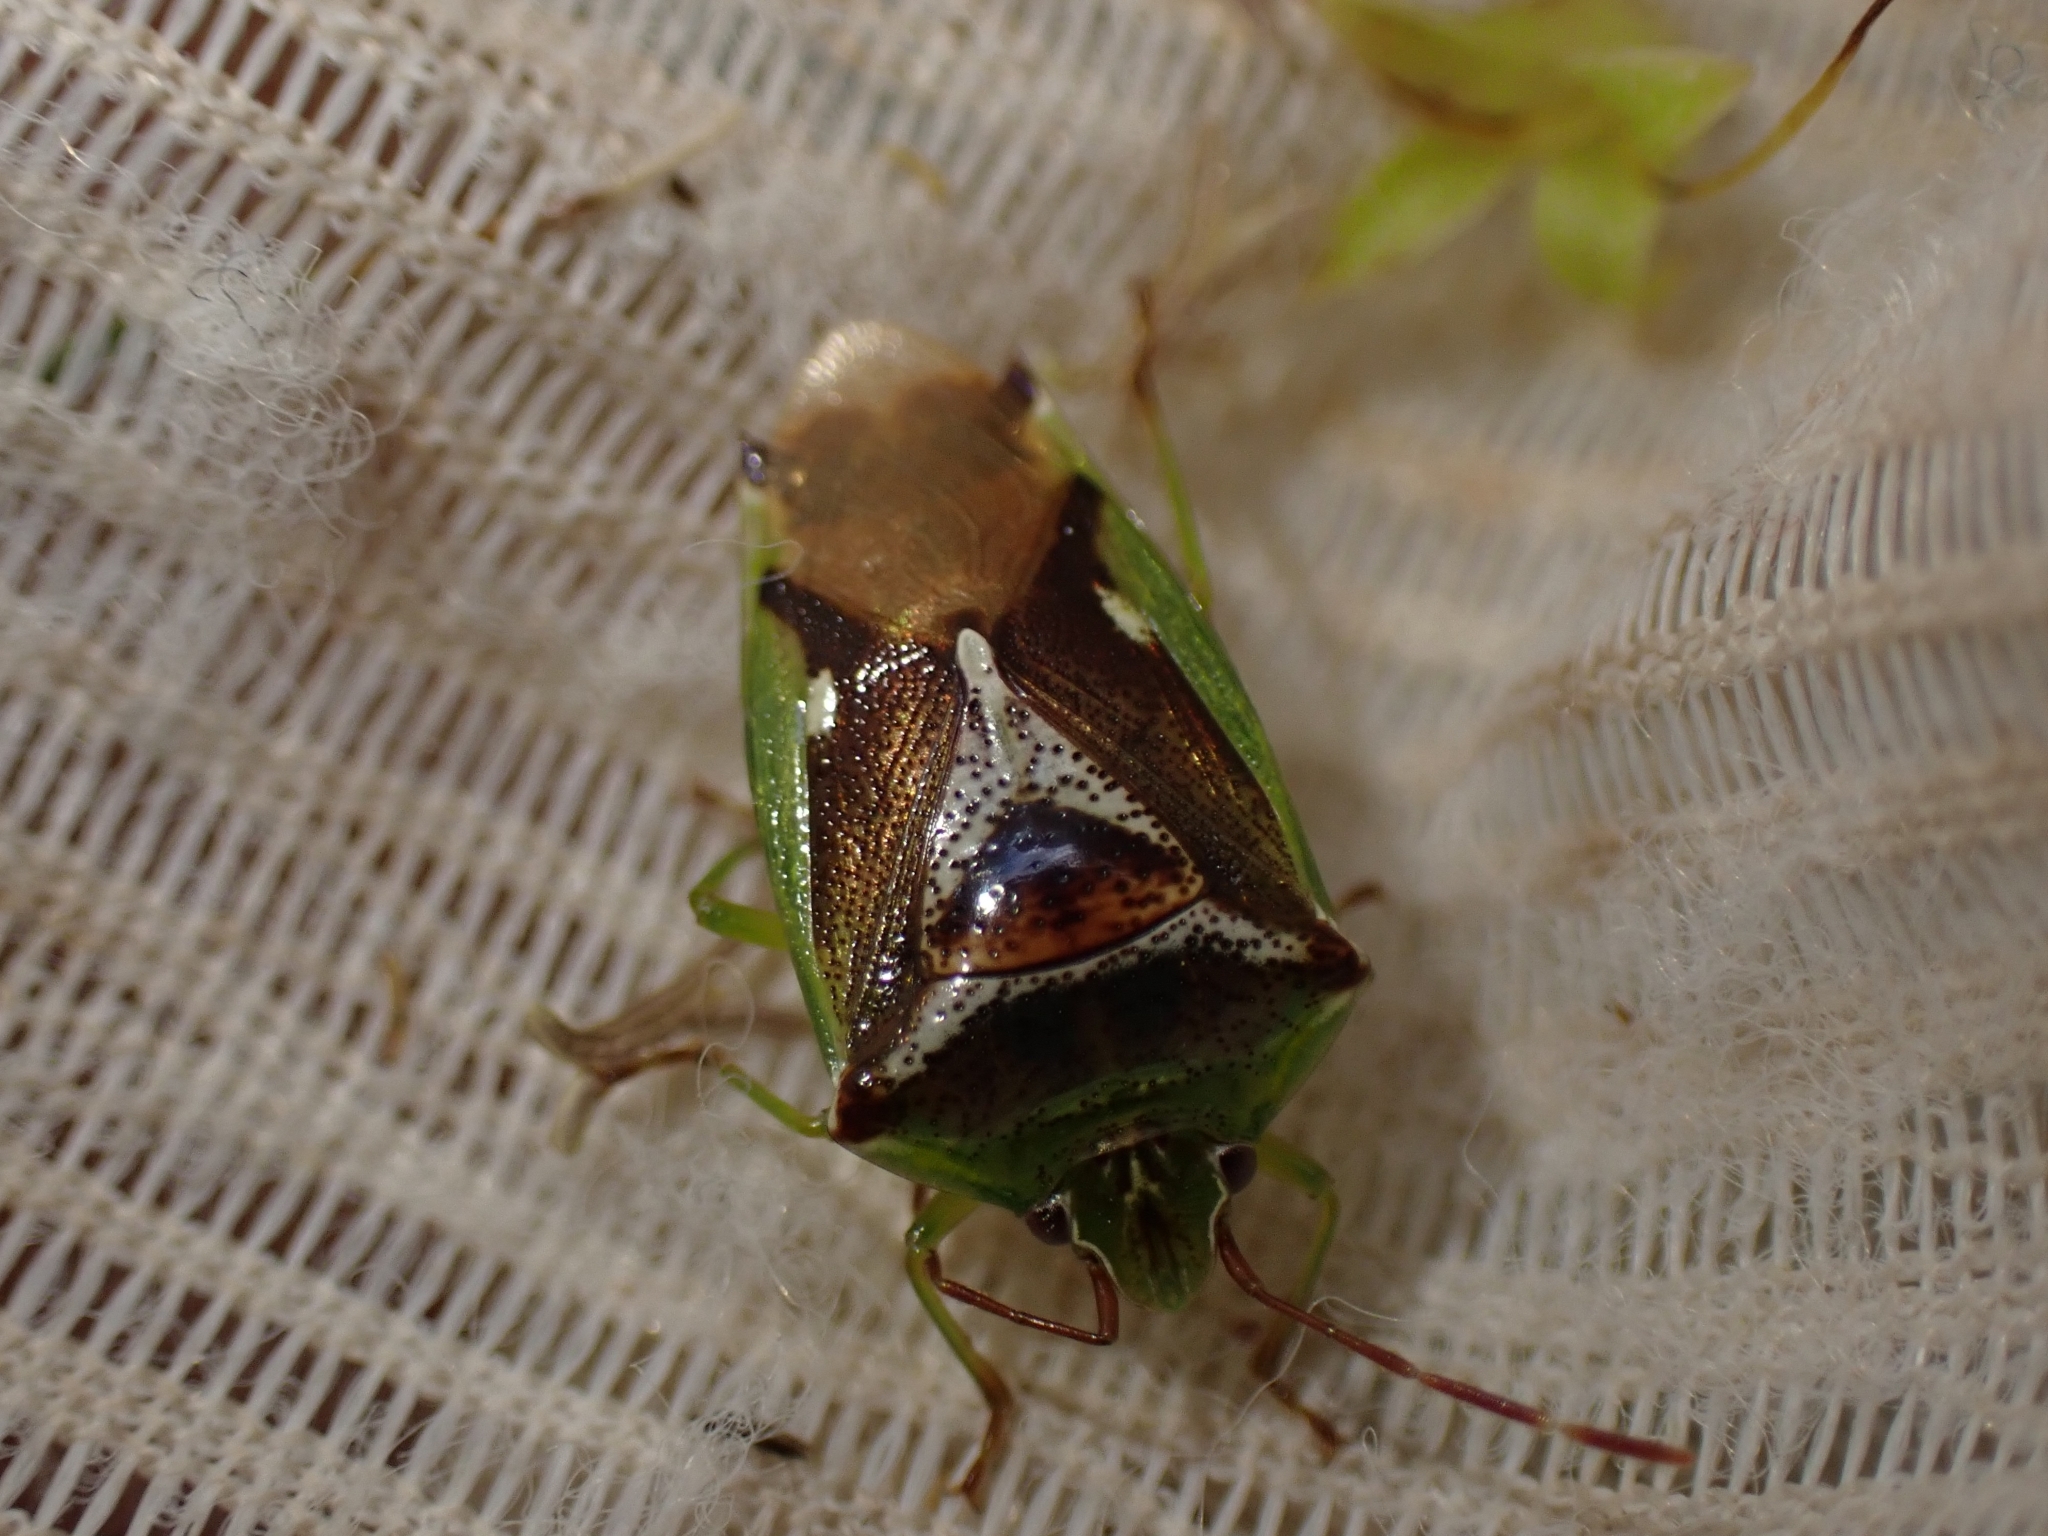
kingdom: Animalia
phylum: Arthropoda
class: Insecta
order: Hemiptera
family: Acanthosomatidae
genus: Oncacontias
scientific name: Oncacontias vittatus
